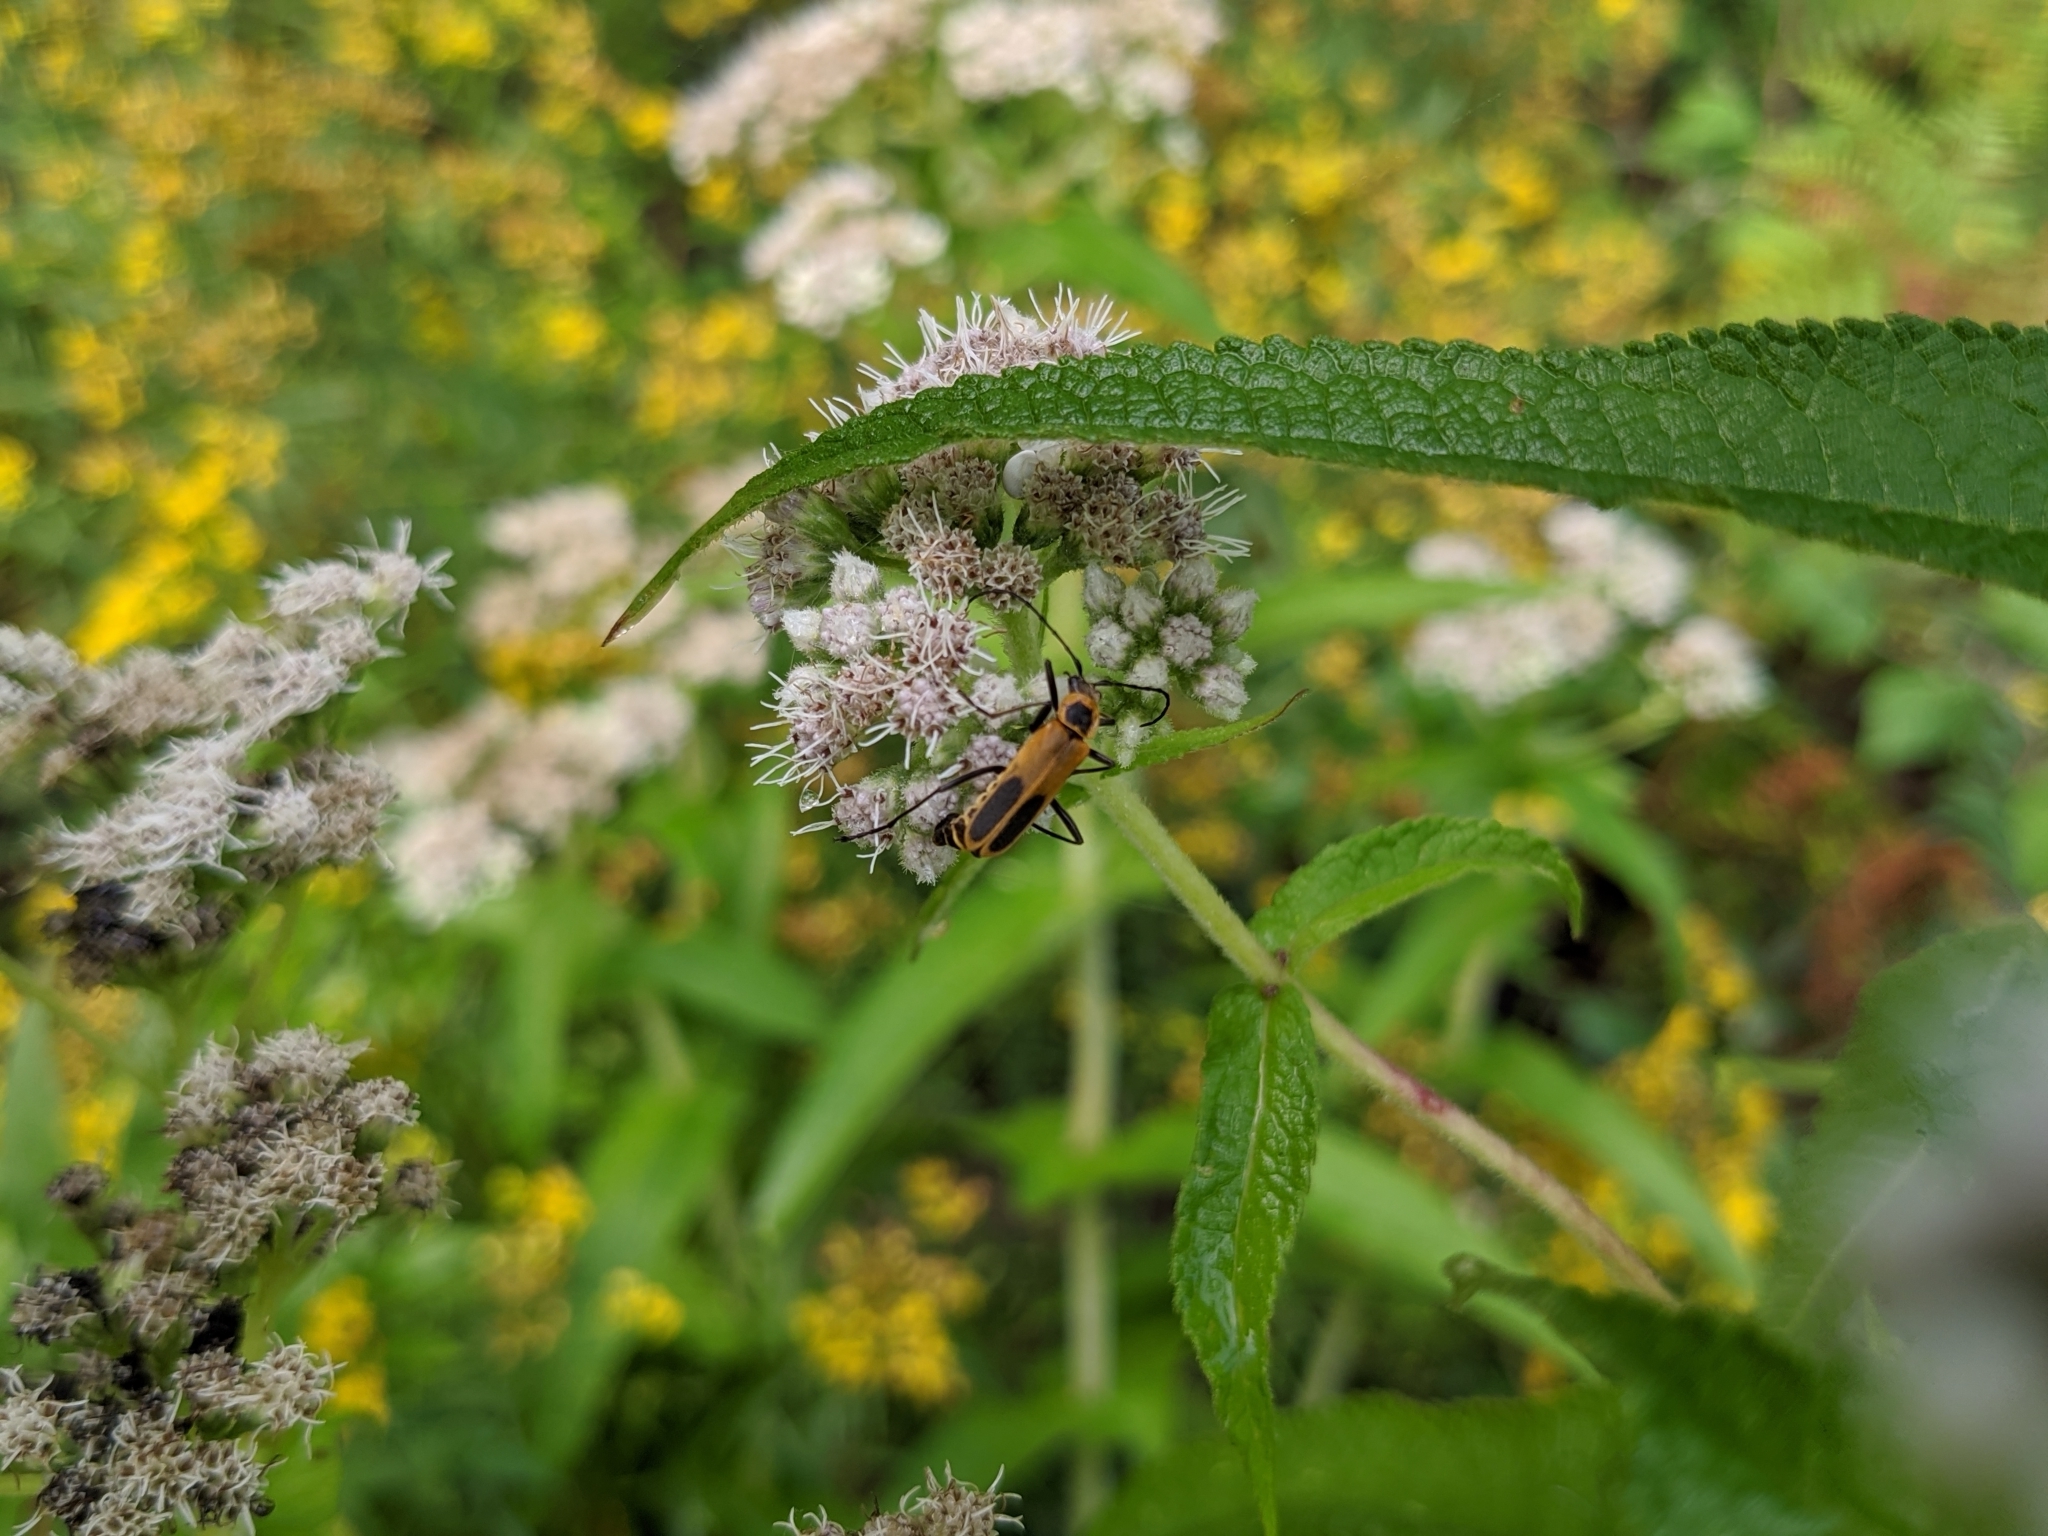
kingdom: Animalia
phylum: Arthropoda
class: Insecta
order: Coleoptera
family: Cantharidae
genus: Chauliognathus
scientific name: Chauliognathus pensylvanicus
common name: Goldenrod soldier beetle
